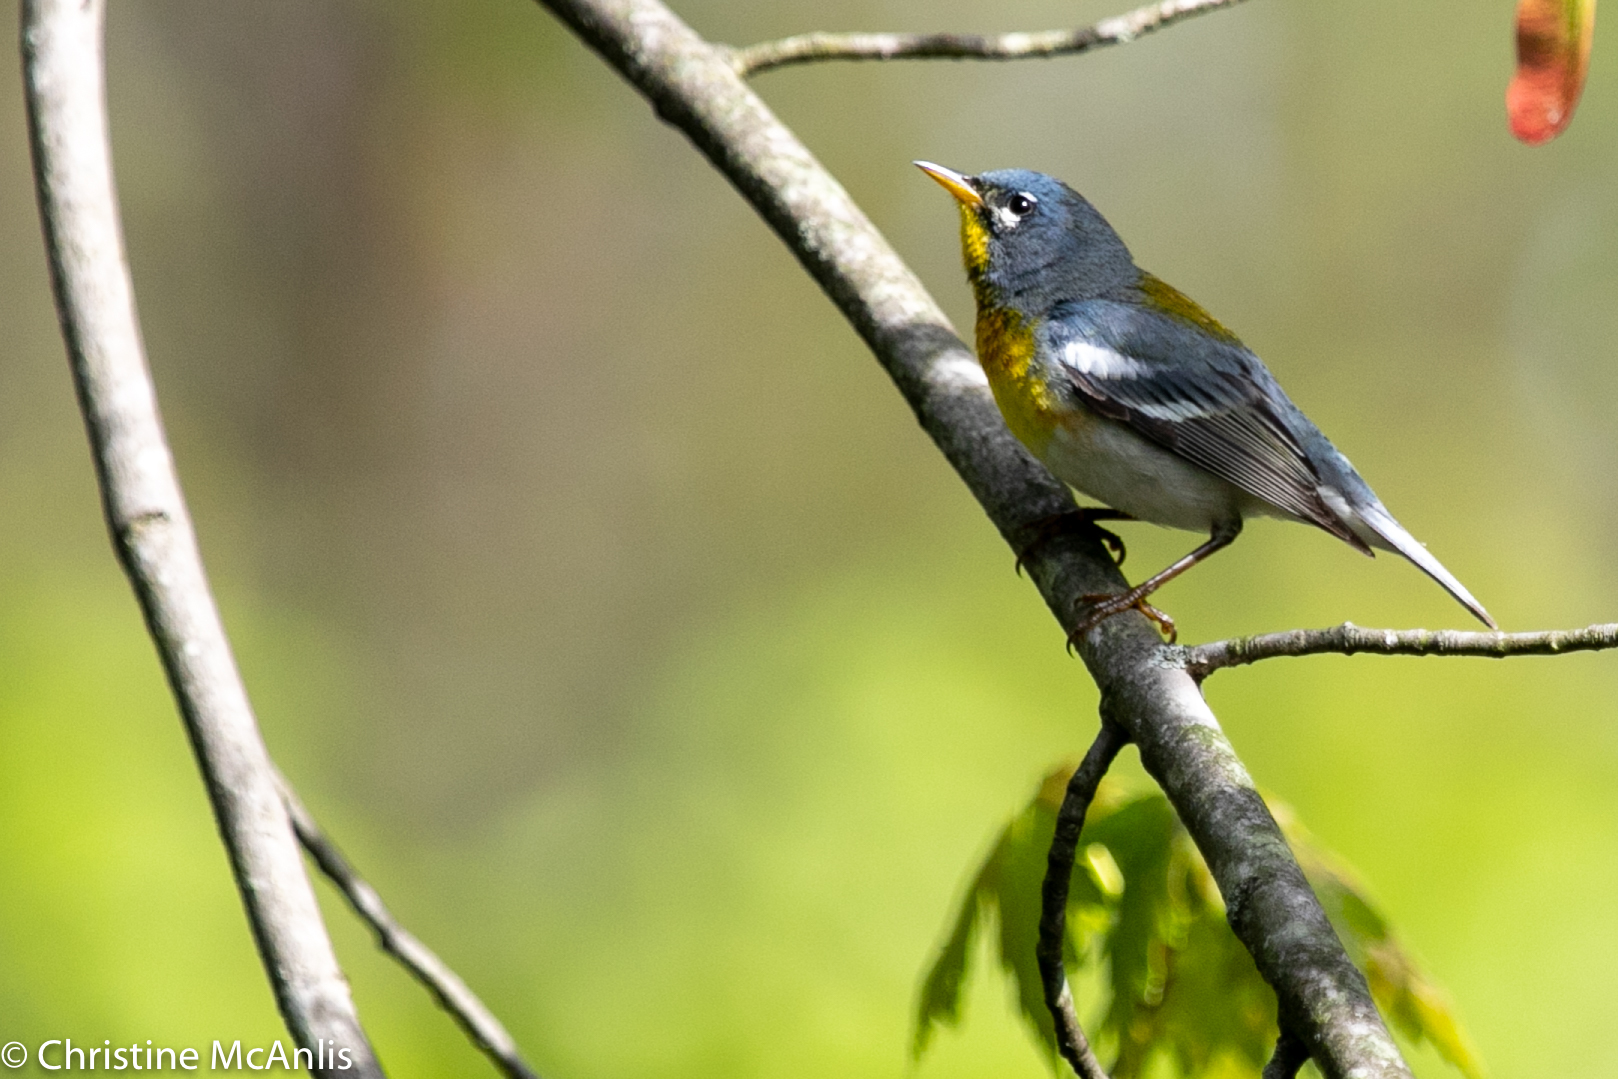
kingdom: Animalia
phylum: Chordata
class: Aves
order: Passeriformes
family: Parulidae
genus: Setophaga
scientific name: Setophaga americana
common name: Northern parula
